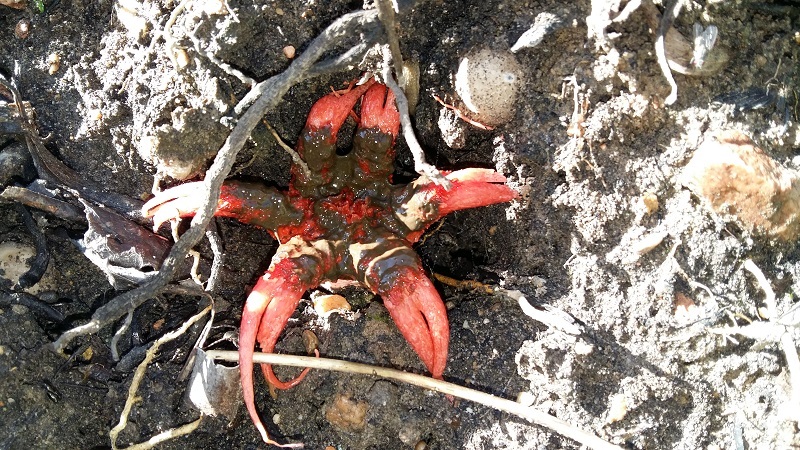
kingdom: Fungi
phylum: Basidiomycota
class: Agaricomycetes
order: Phallales
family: Phallaceae
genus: Aseroe
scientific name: Aseroe rubra
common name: Starfish fungus
